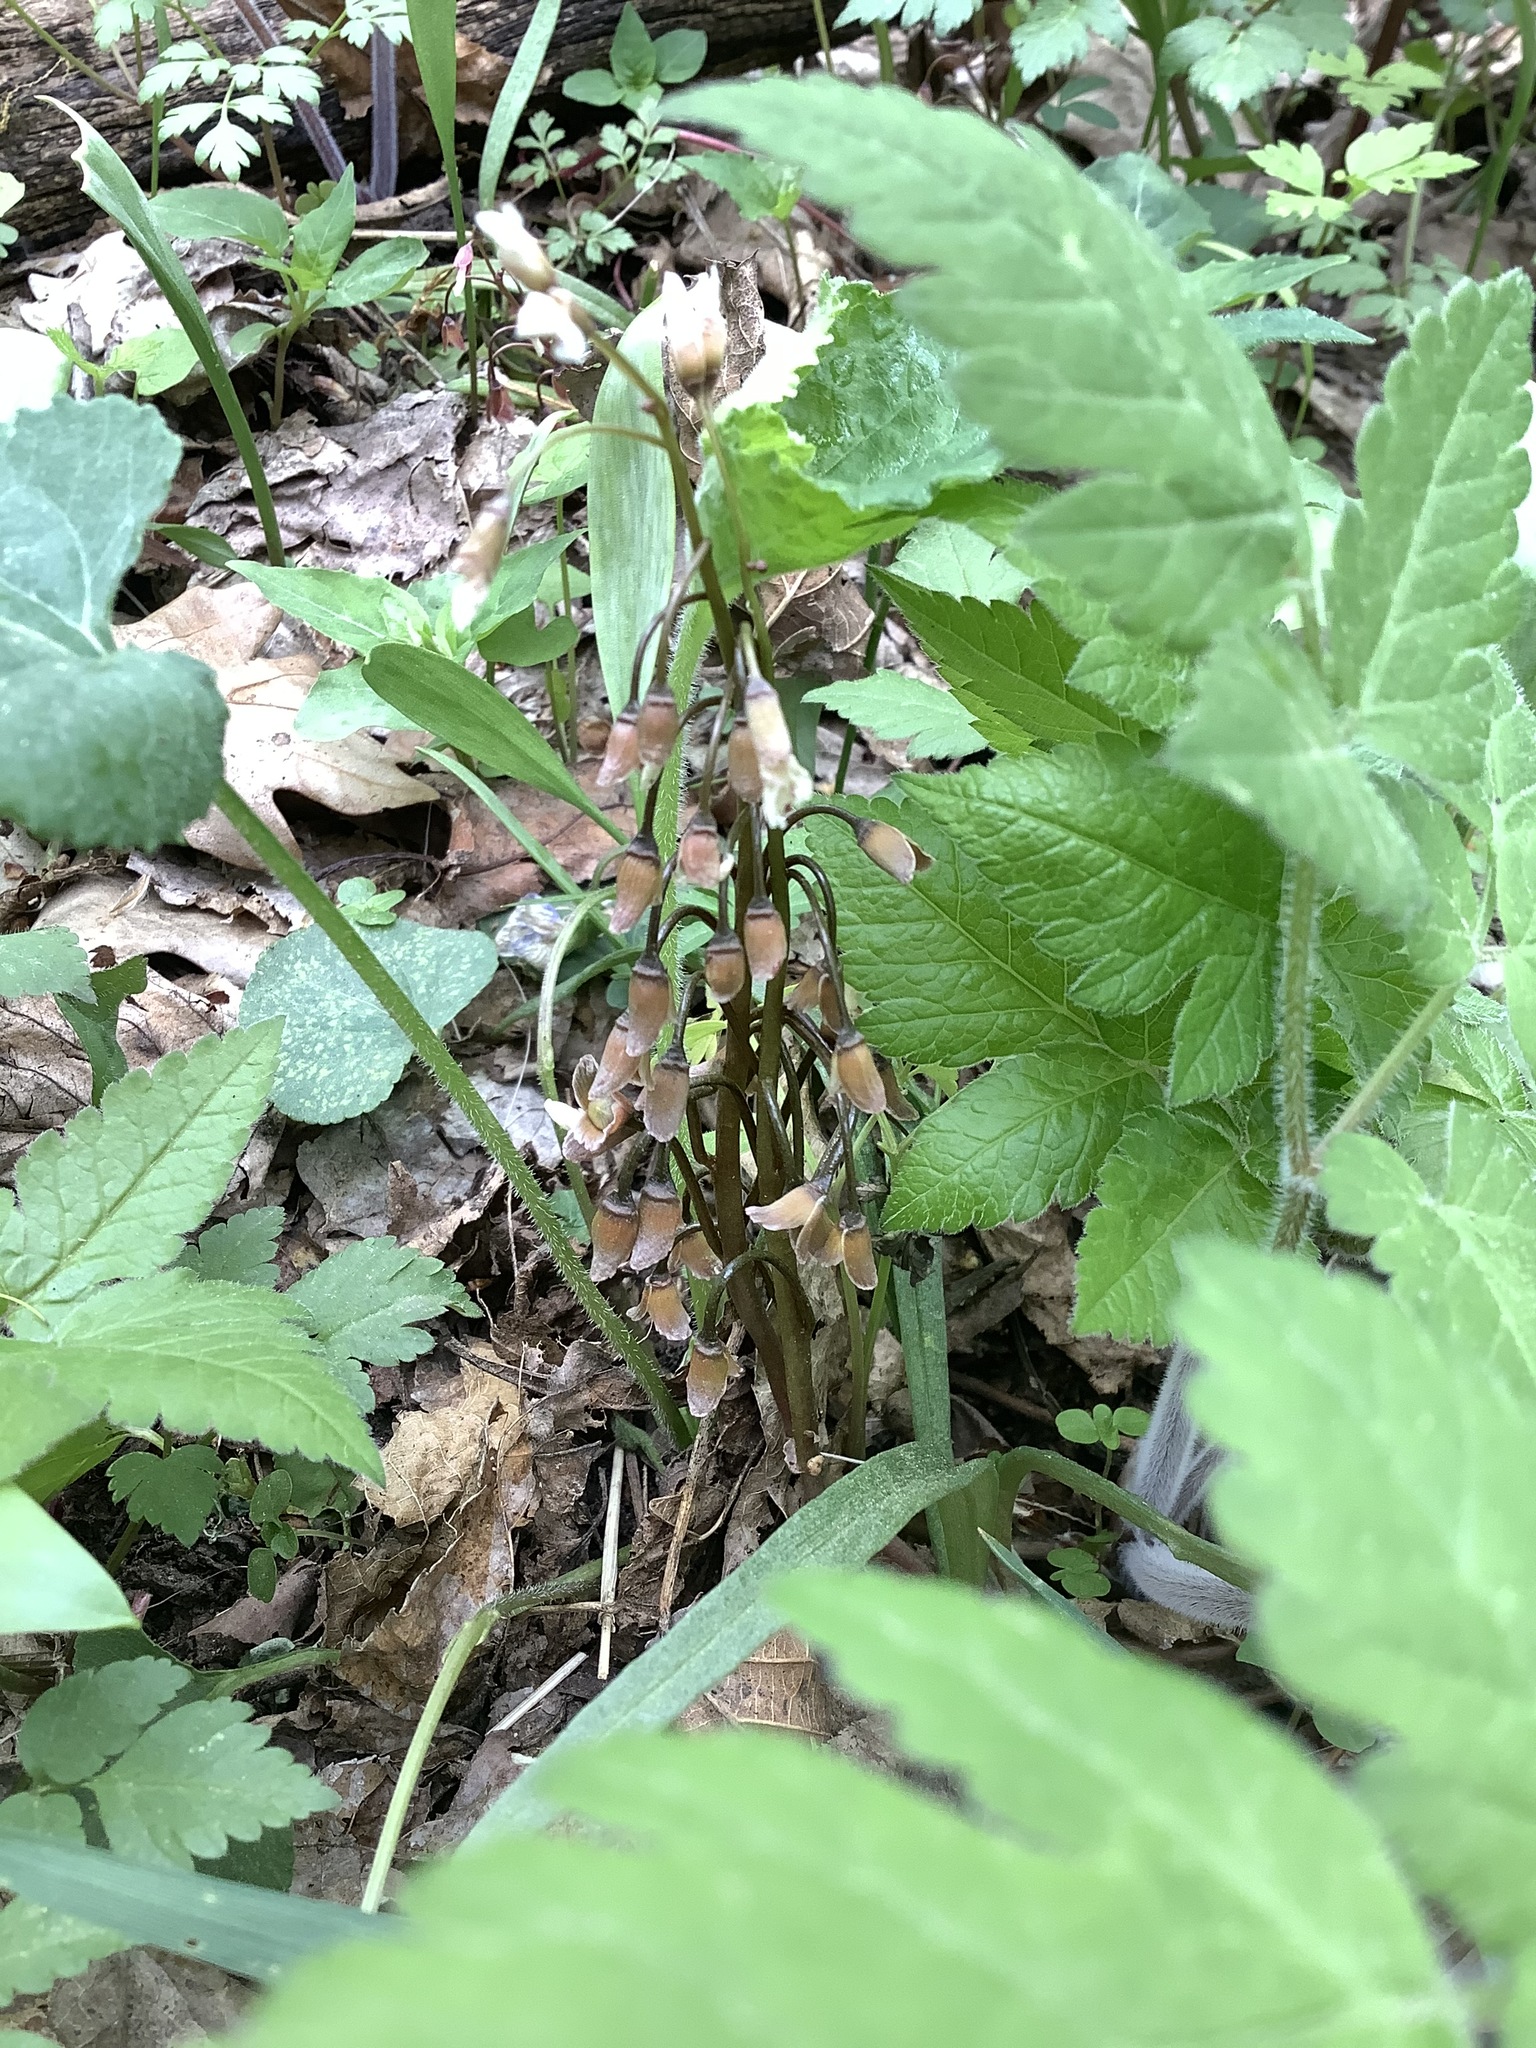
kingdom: Plantae
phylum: Tracheophyta
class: Magnoliopsida
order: Caryophyllales
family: Montiaceae
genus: Claytonia
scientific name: Claytonia virginica
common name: Virginia springbeauty
